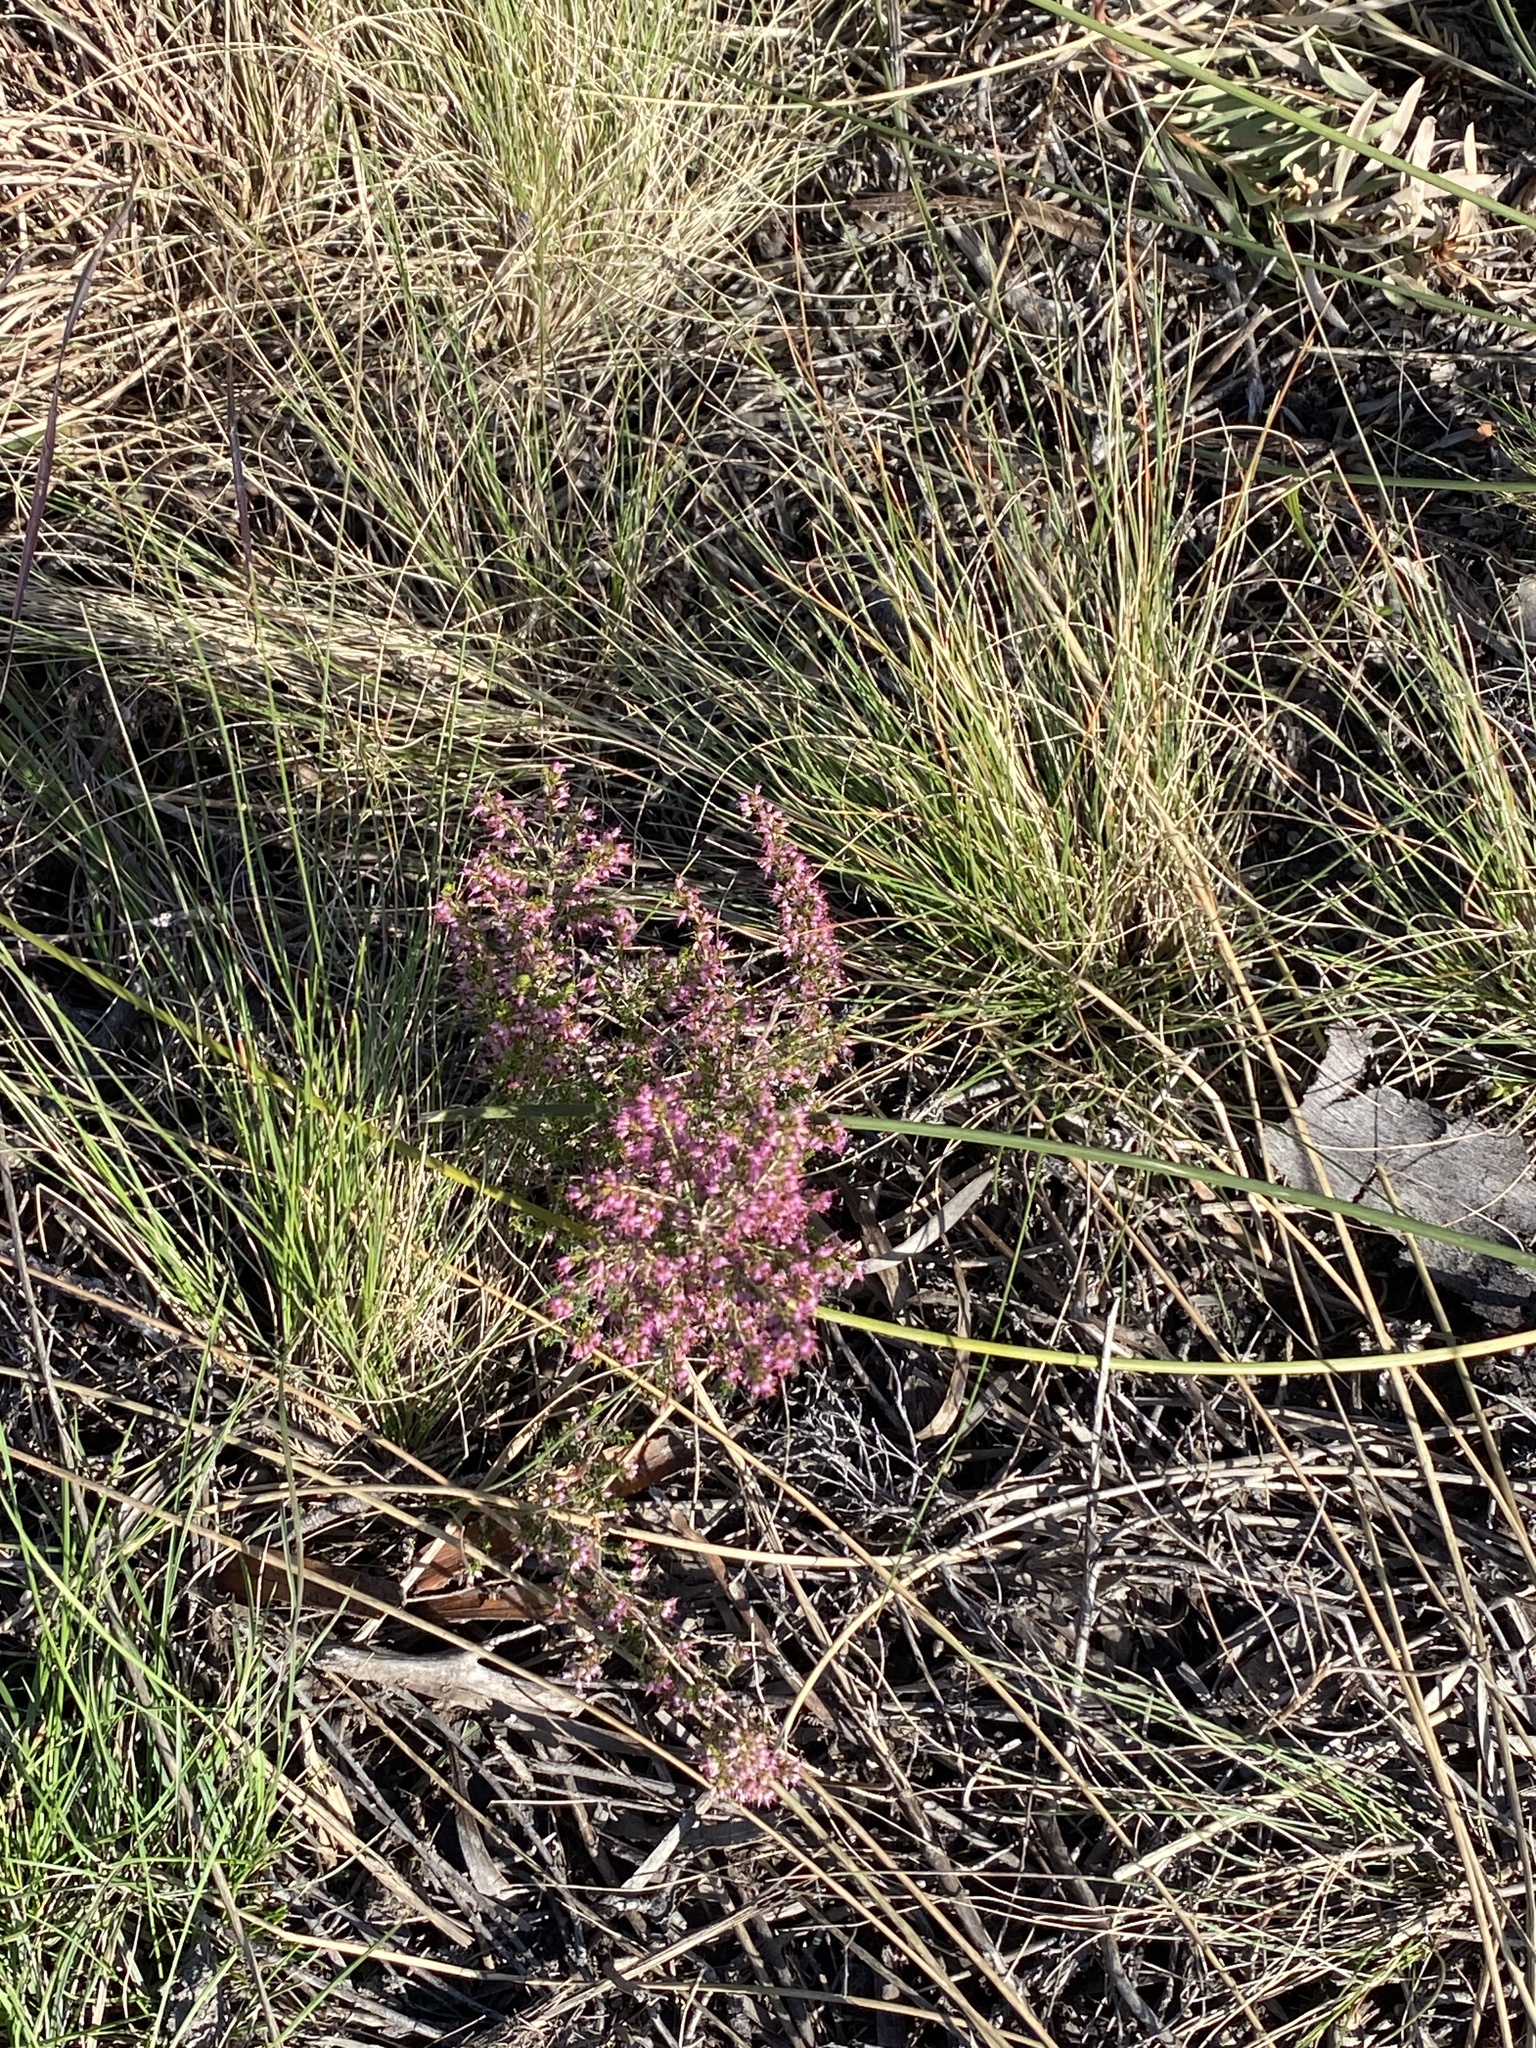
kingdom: Plantae
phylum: Tracheophyta
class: Magnoliopsida
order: Ericales
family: Ericaceae
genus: Erica
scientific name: Erica klotzschii
